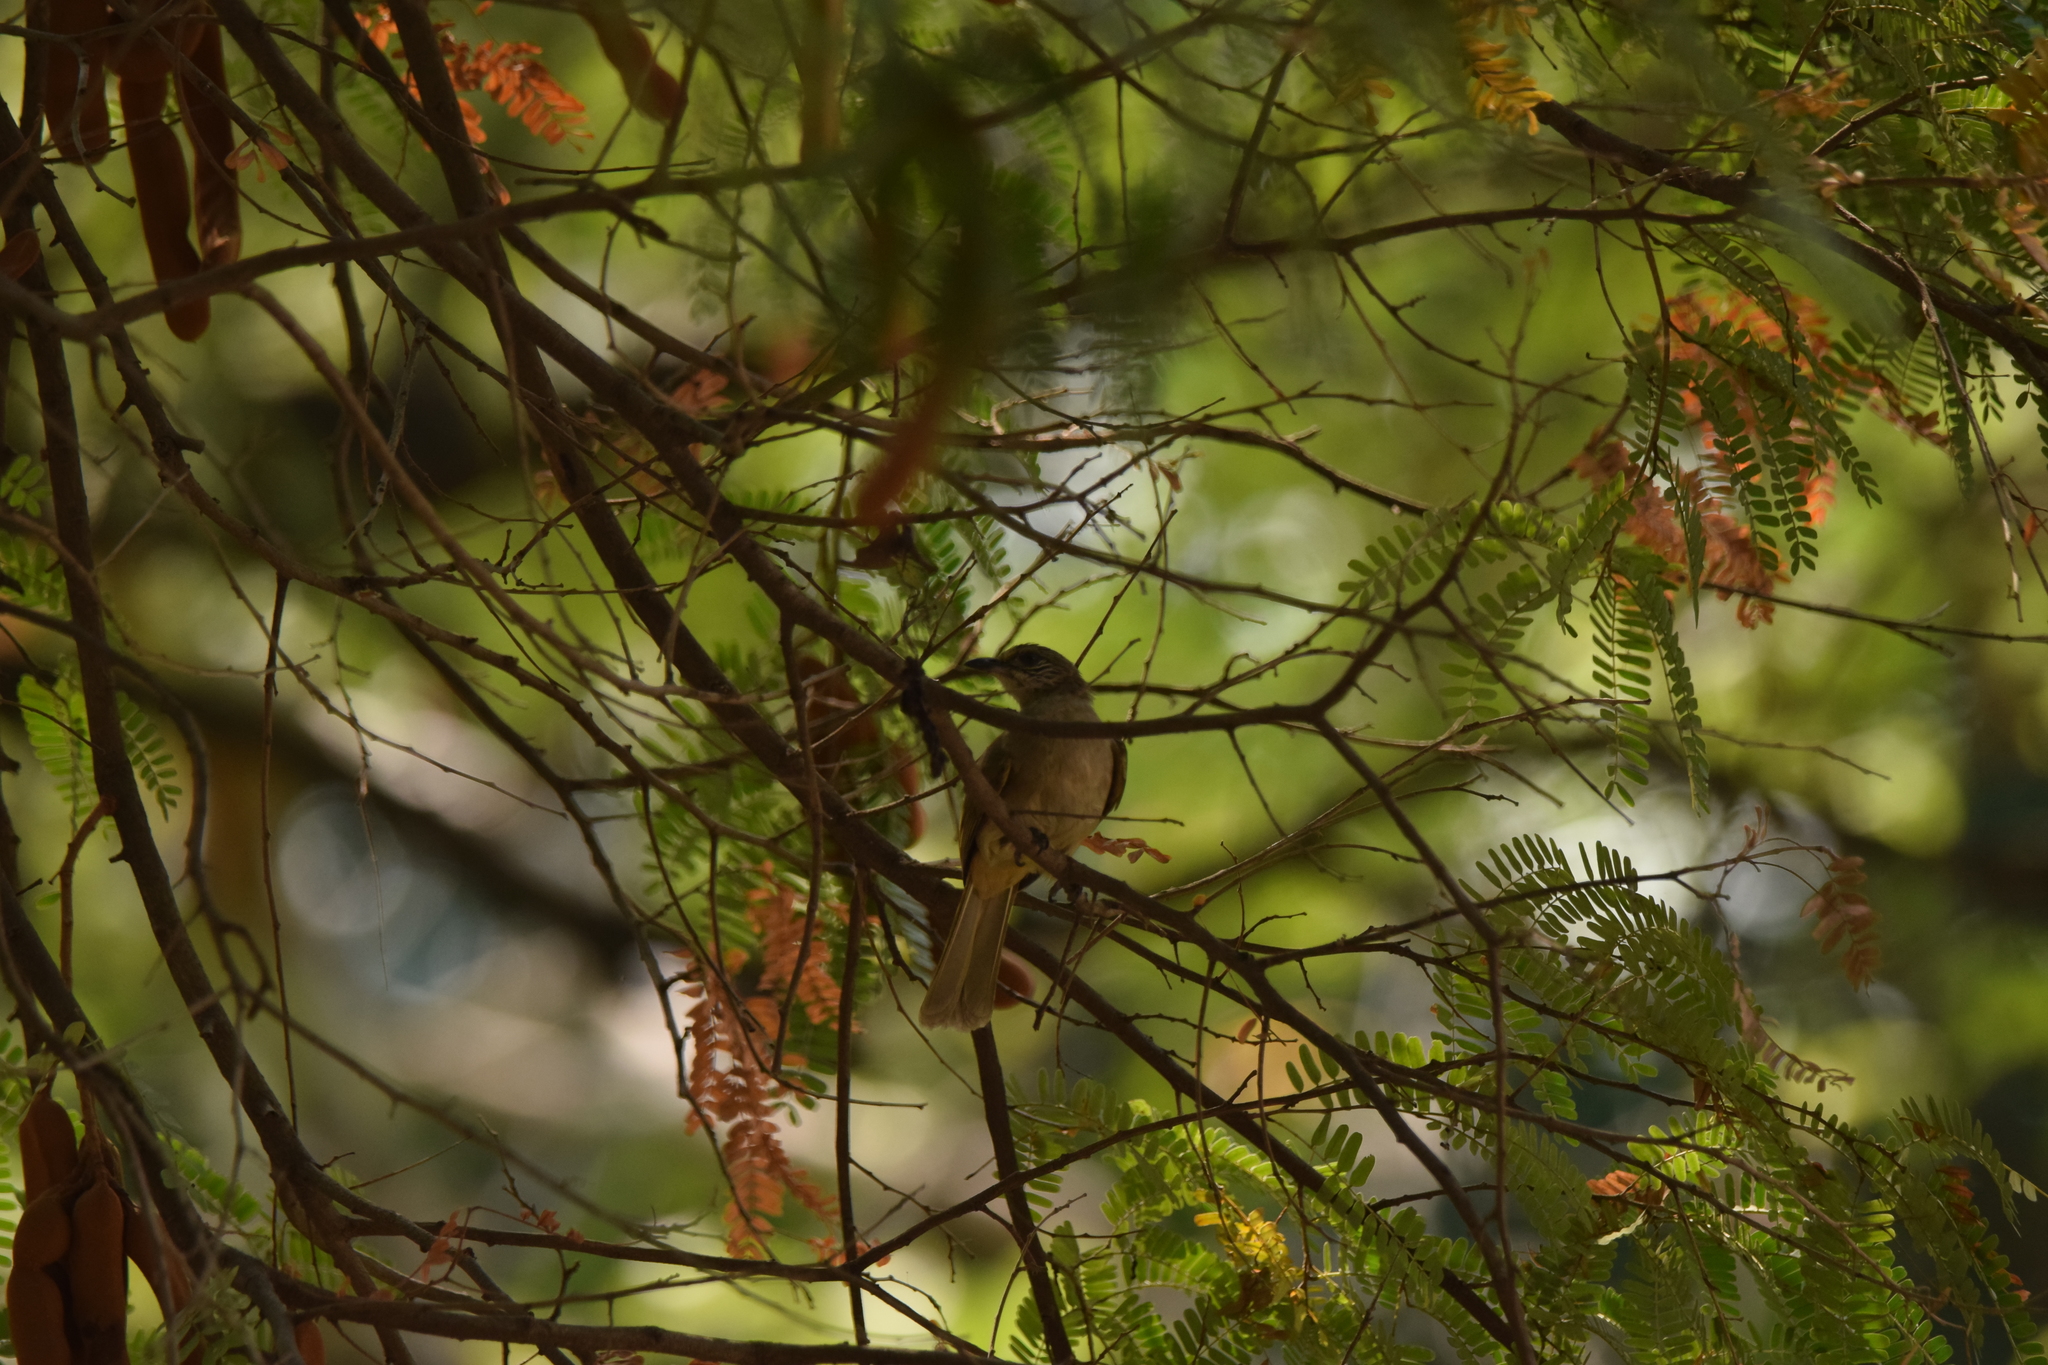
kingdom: Animalia
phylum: Chordata
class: Aves
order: Passeriformes
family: Pycnonotidae
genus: Pycnonotus
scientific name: Pycnonotus blanfordi
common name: Streak-eared bulbul
